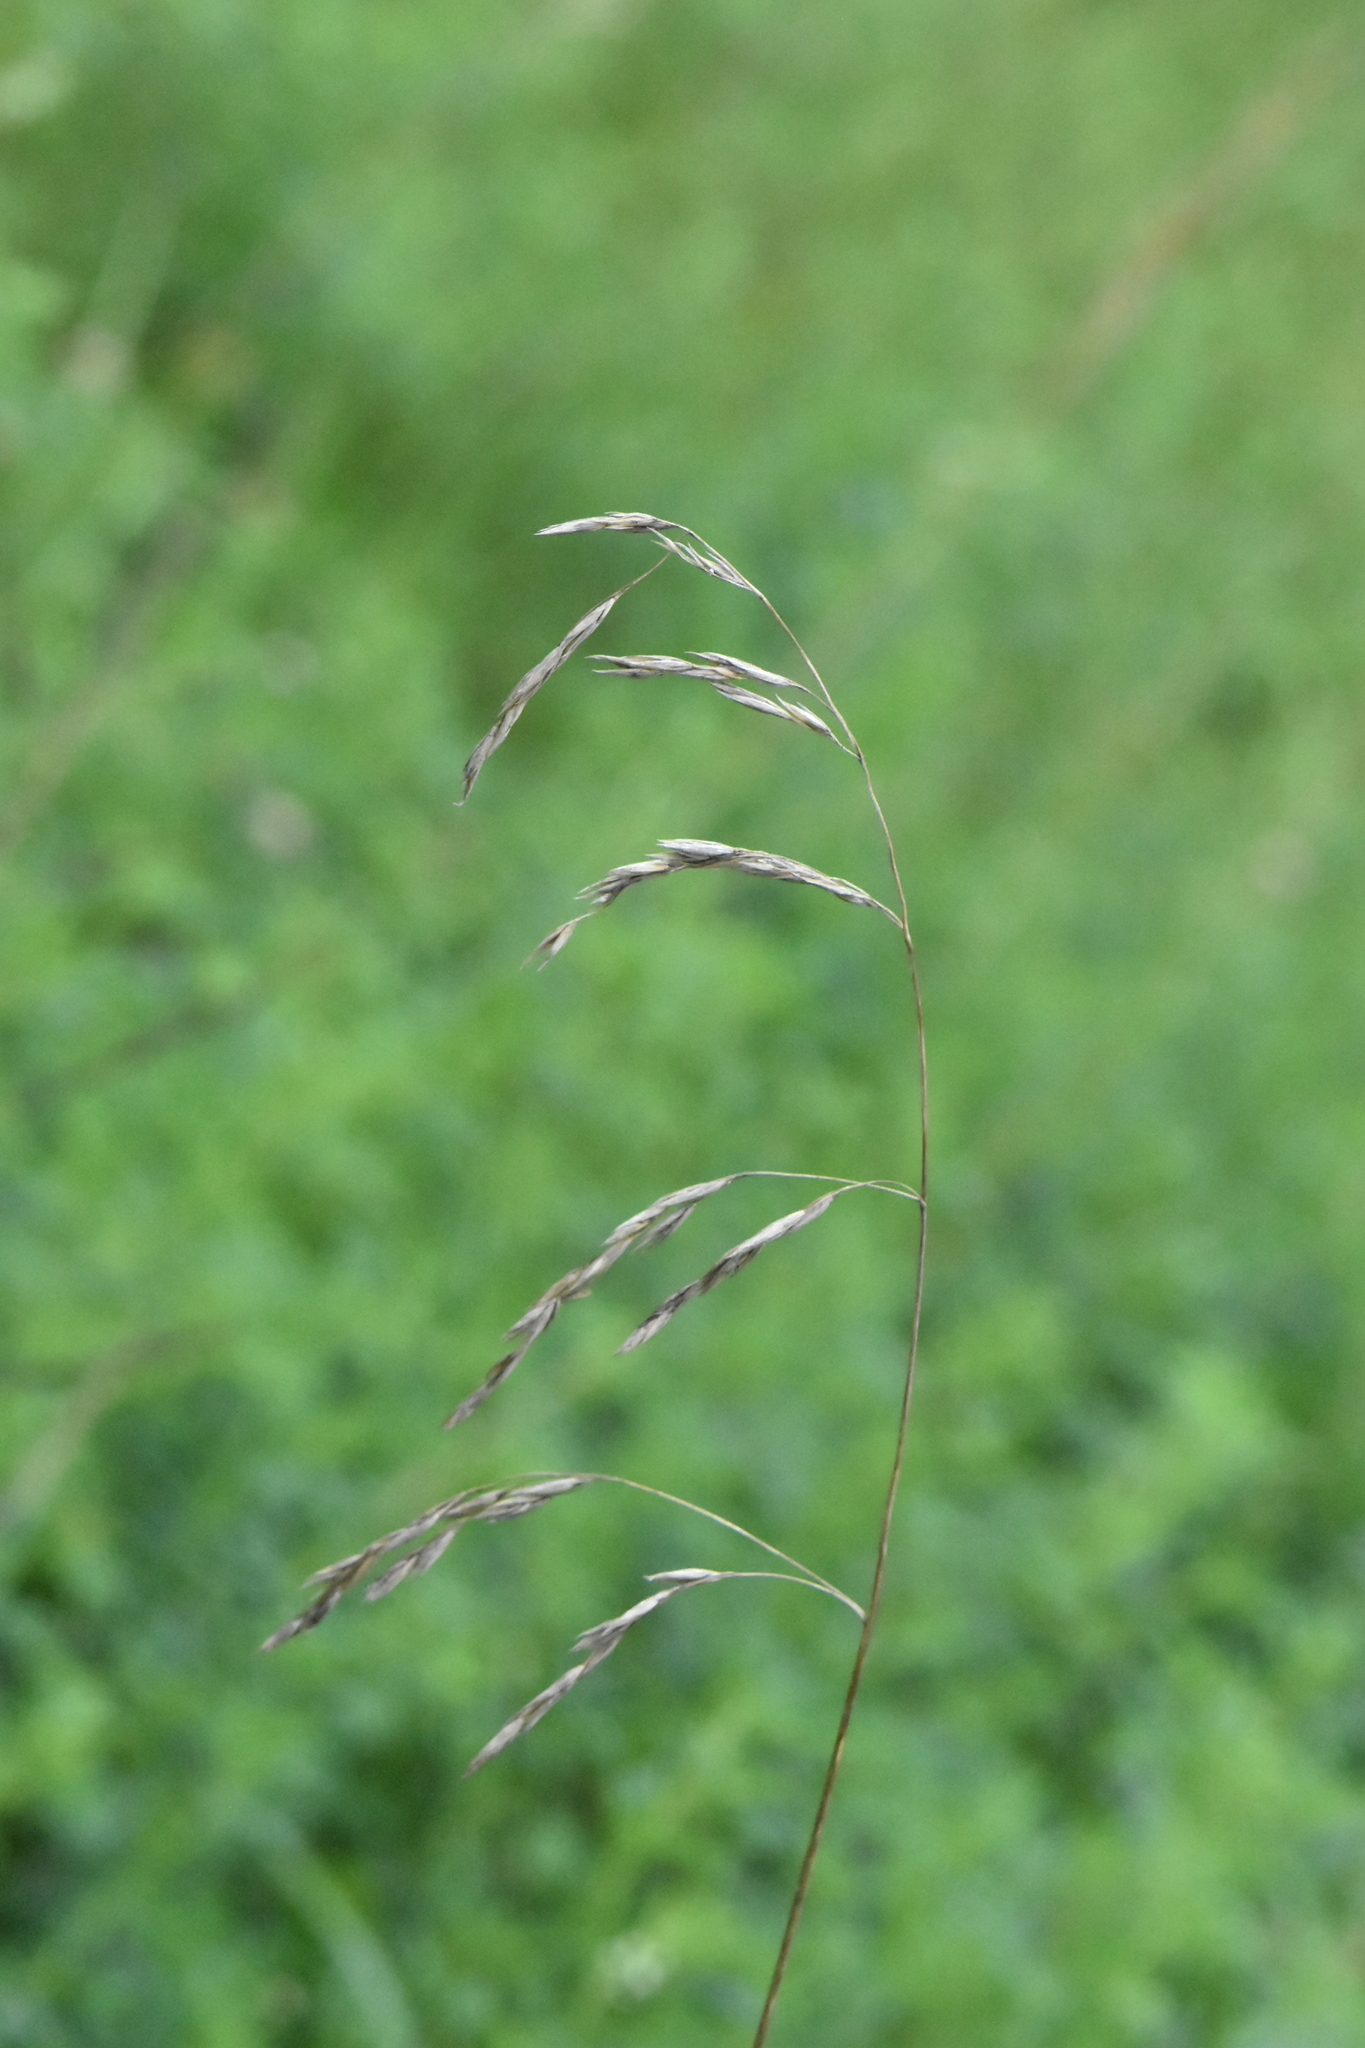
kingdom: Plantae
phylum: Tracheophyta
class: Liliopsida
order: Poales
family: Poaceae
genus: Deschampsia
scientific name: Deschampsia cespitosa
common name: Tufted hair-grass
